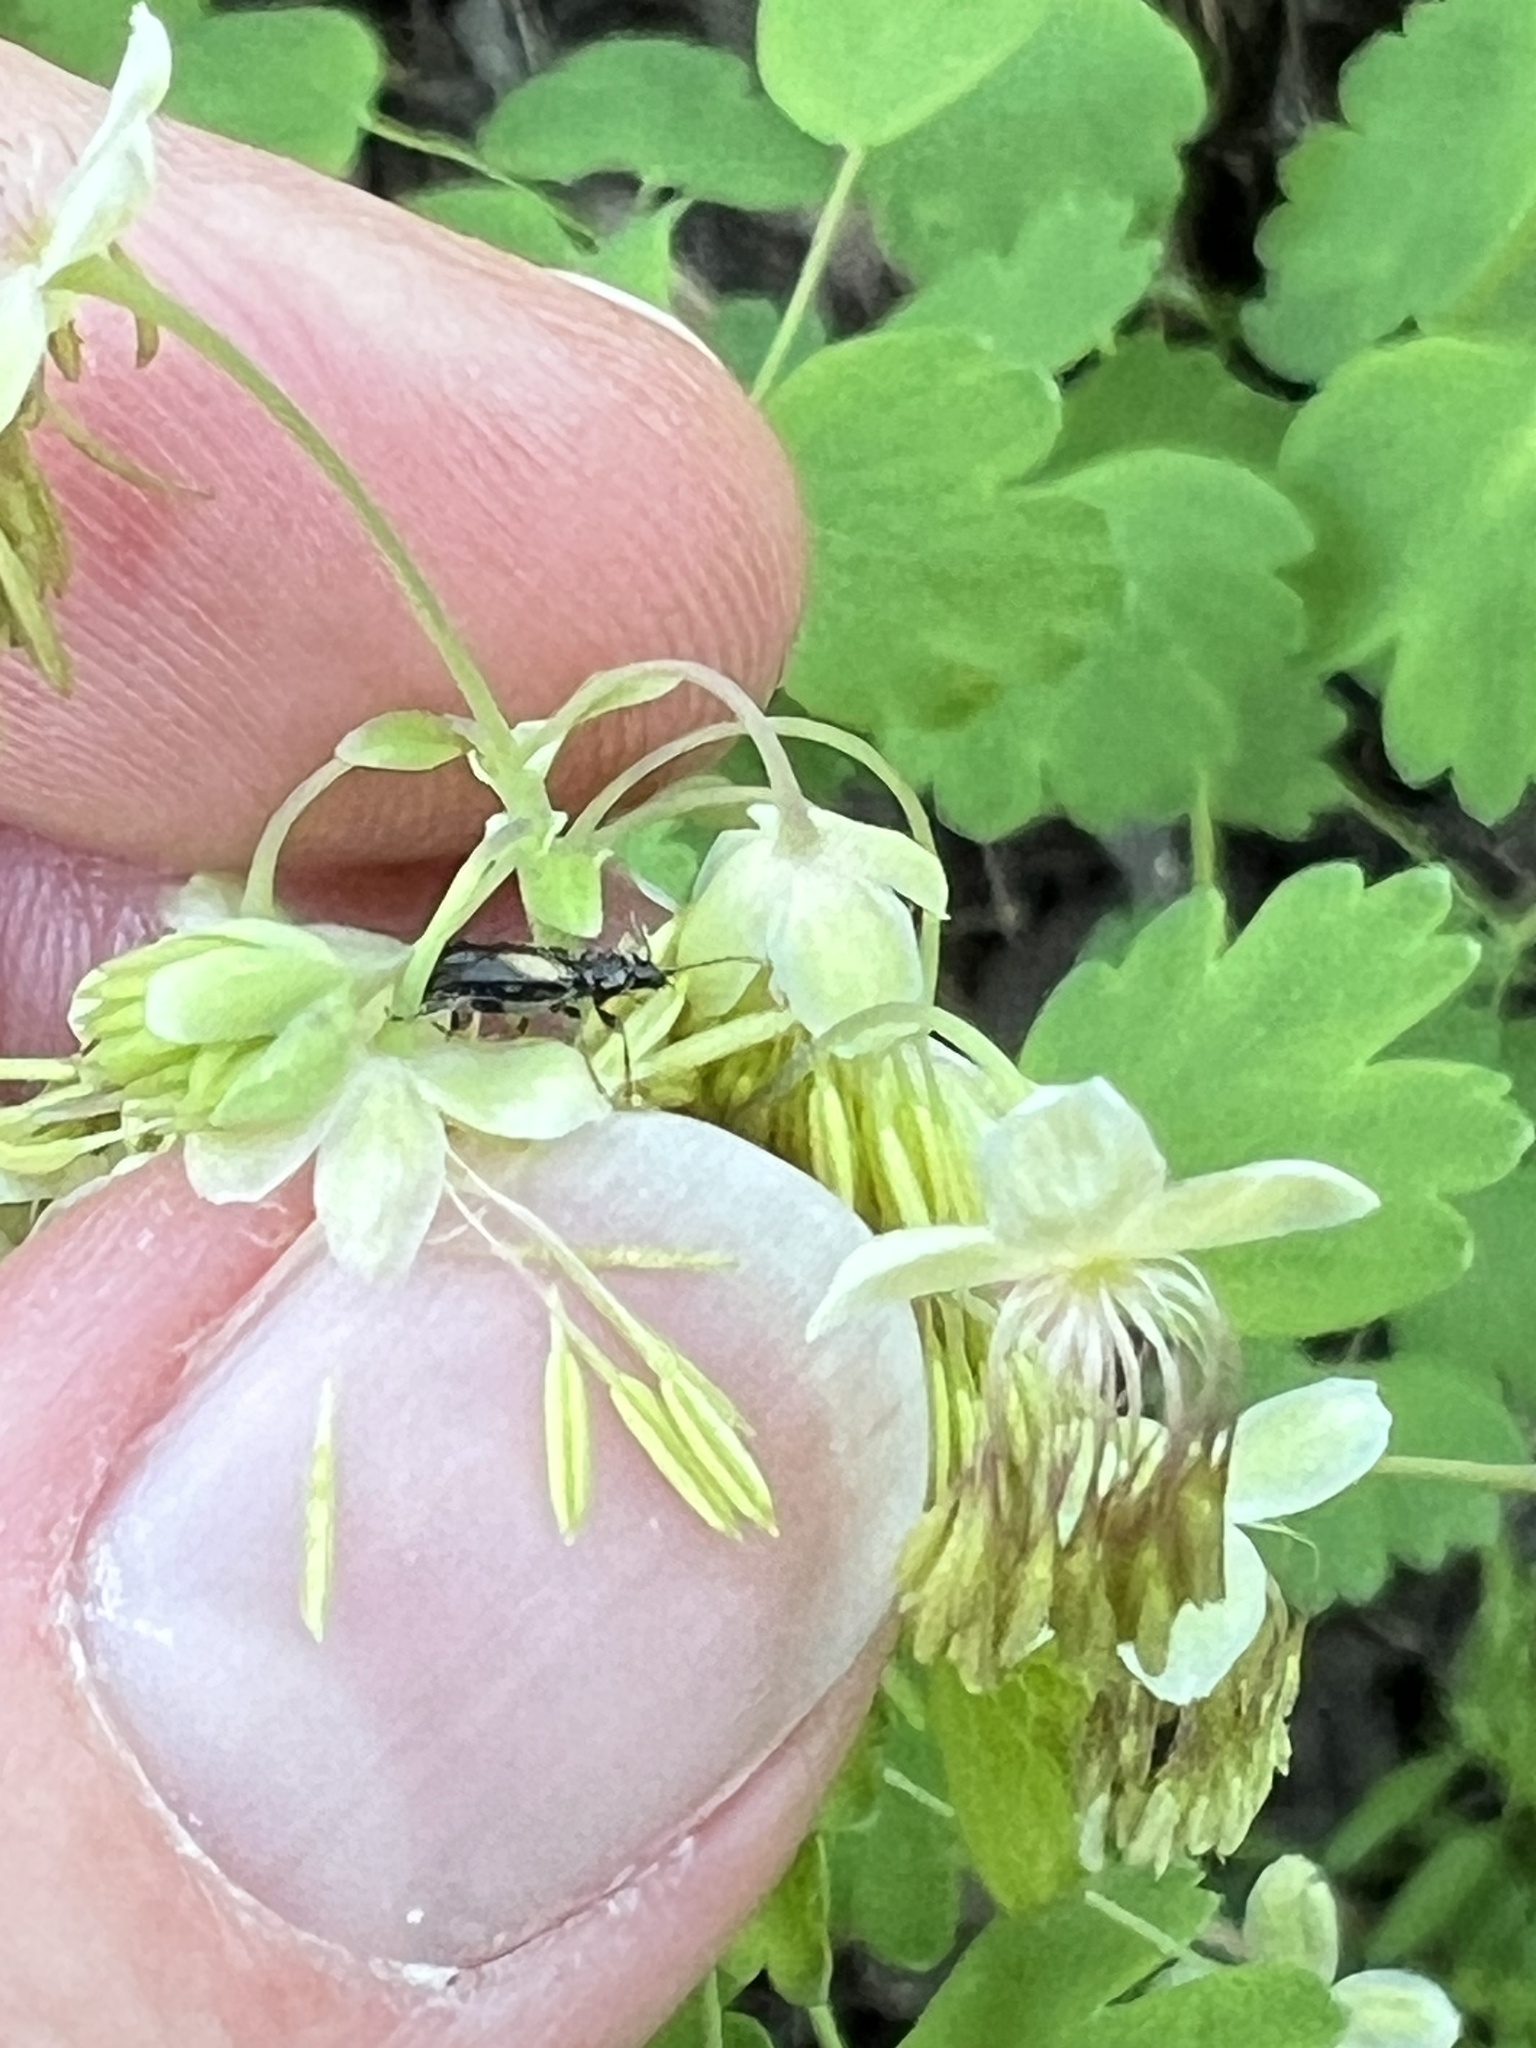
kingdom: Animalia
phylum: Arthropoda
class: Insecta
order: Coleoptera
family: Orsodacnidae
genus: Orsodacne
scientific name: Orsodacne atra
